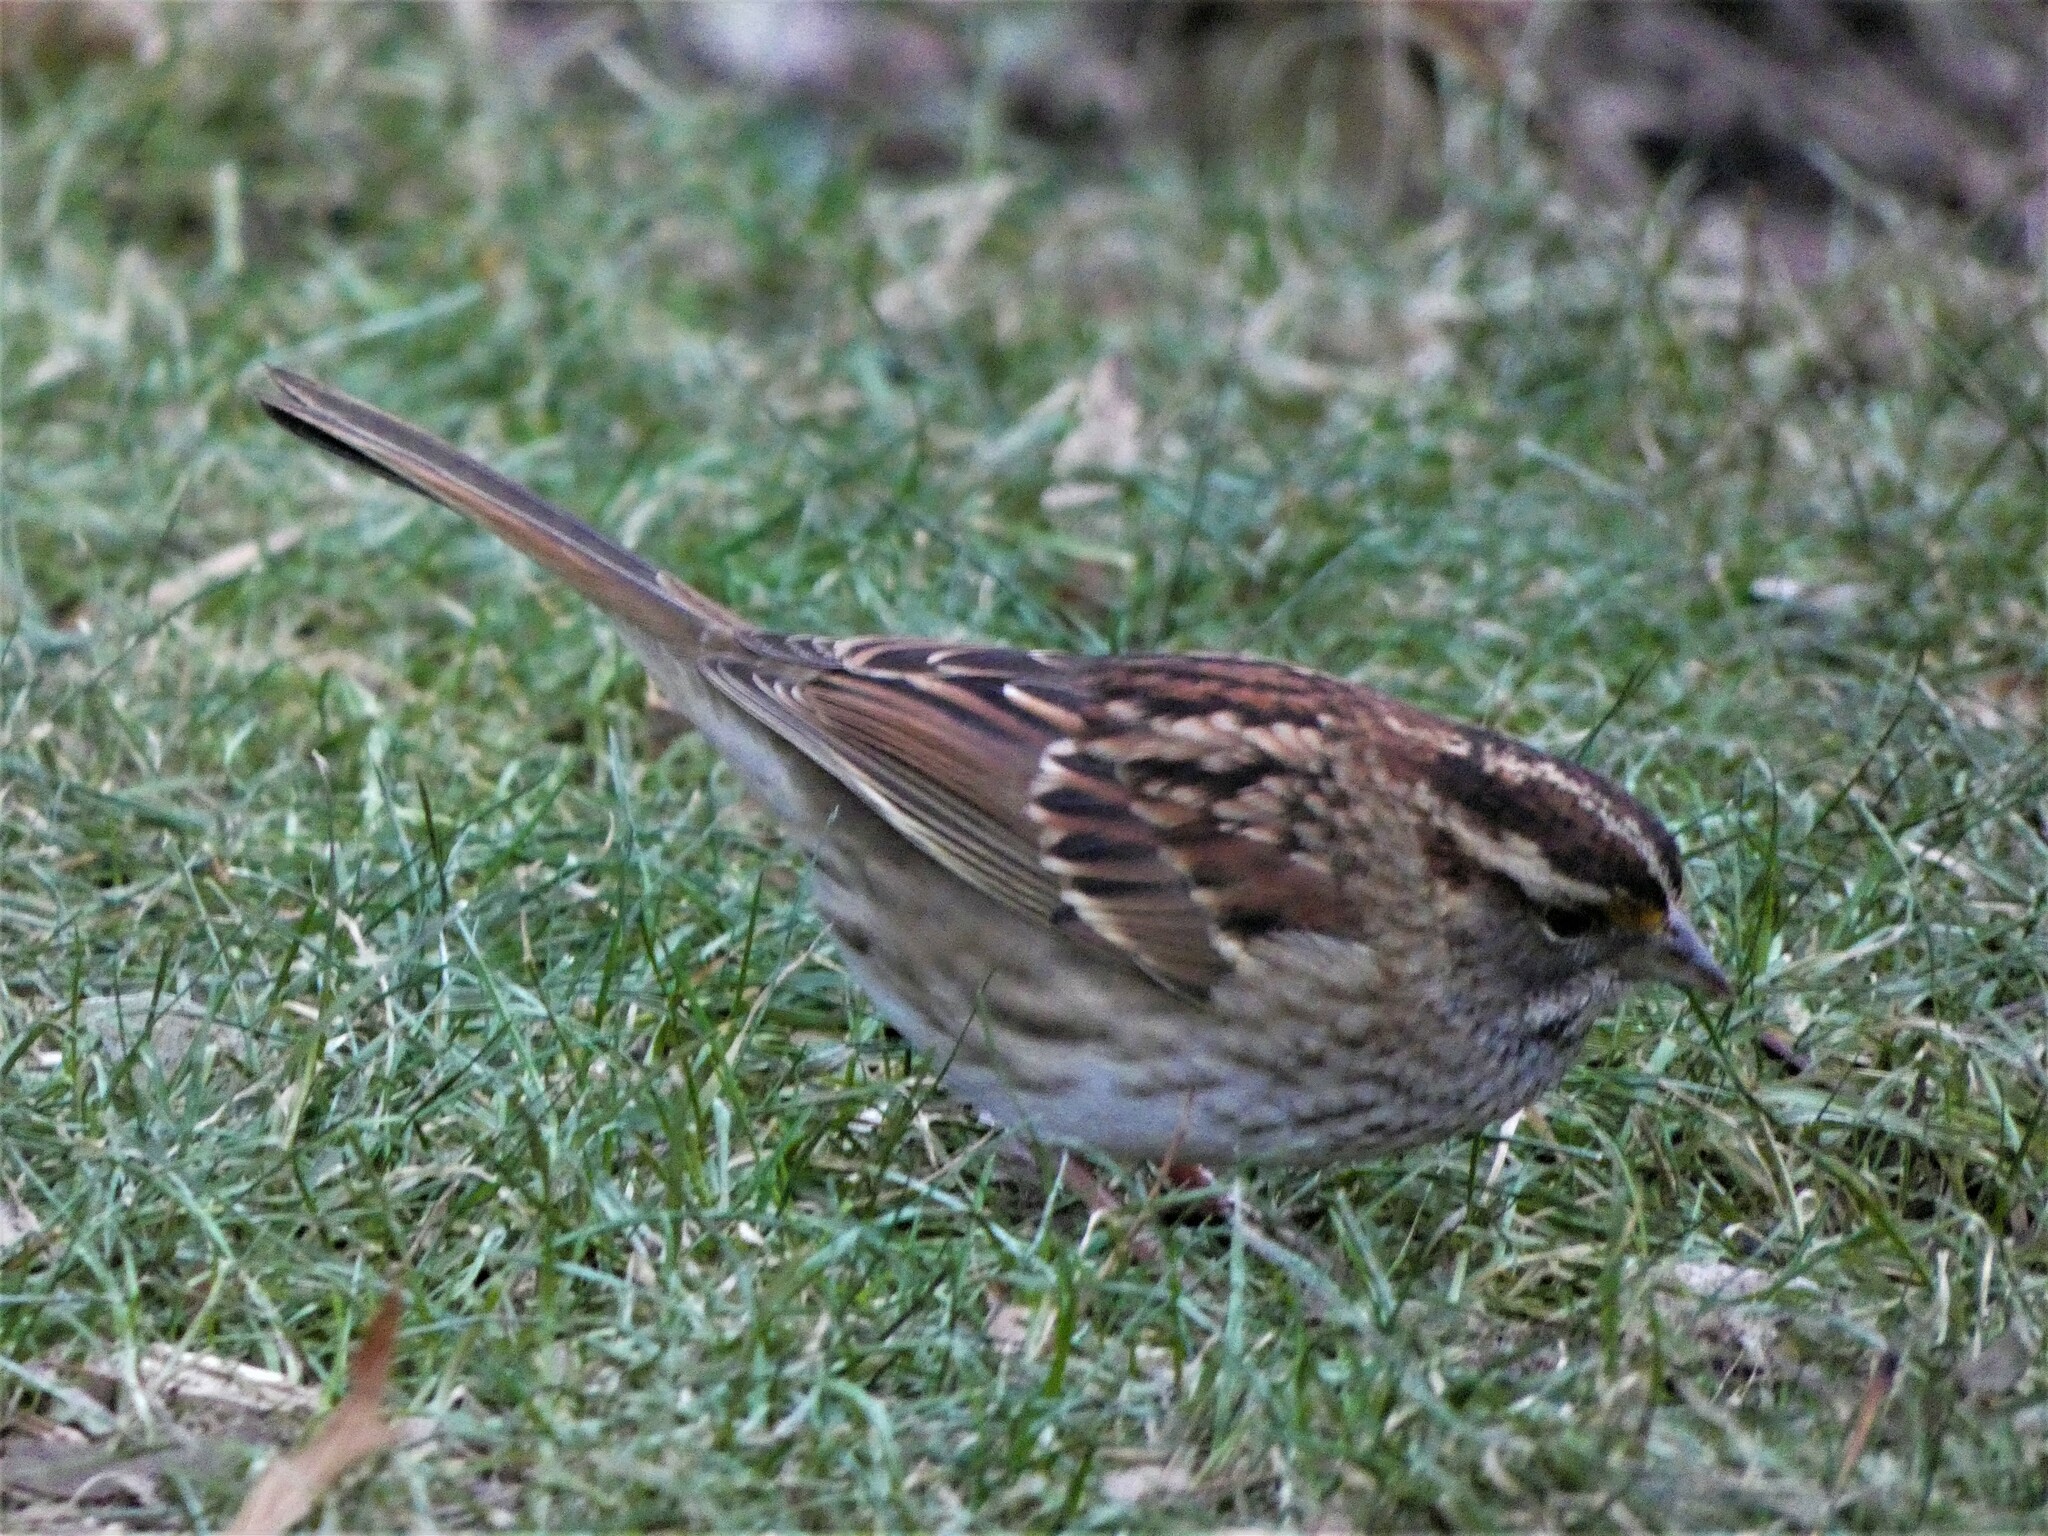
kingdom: Animalia
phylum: Chordata
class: Aves
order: Passeriformes
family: Passerellidae
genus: Zonotrichia
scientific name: Zonotrichia albicollis
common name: White-throated sparrow
